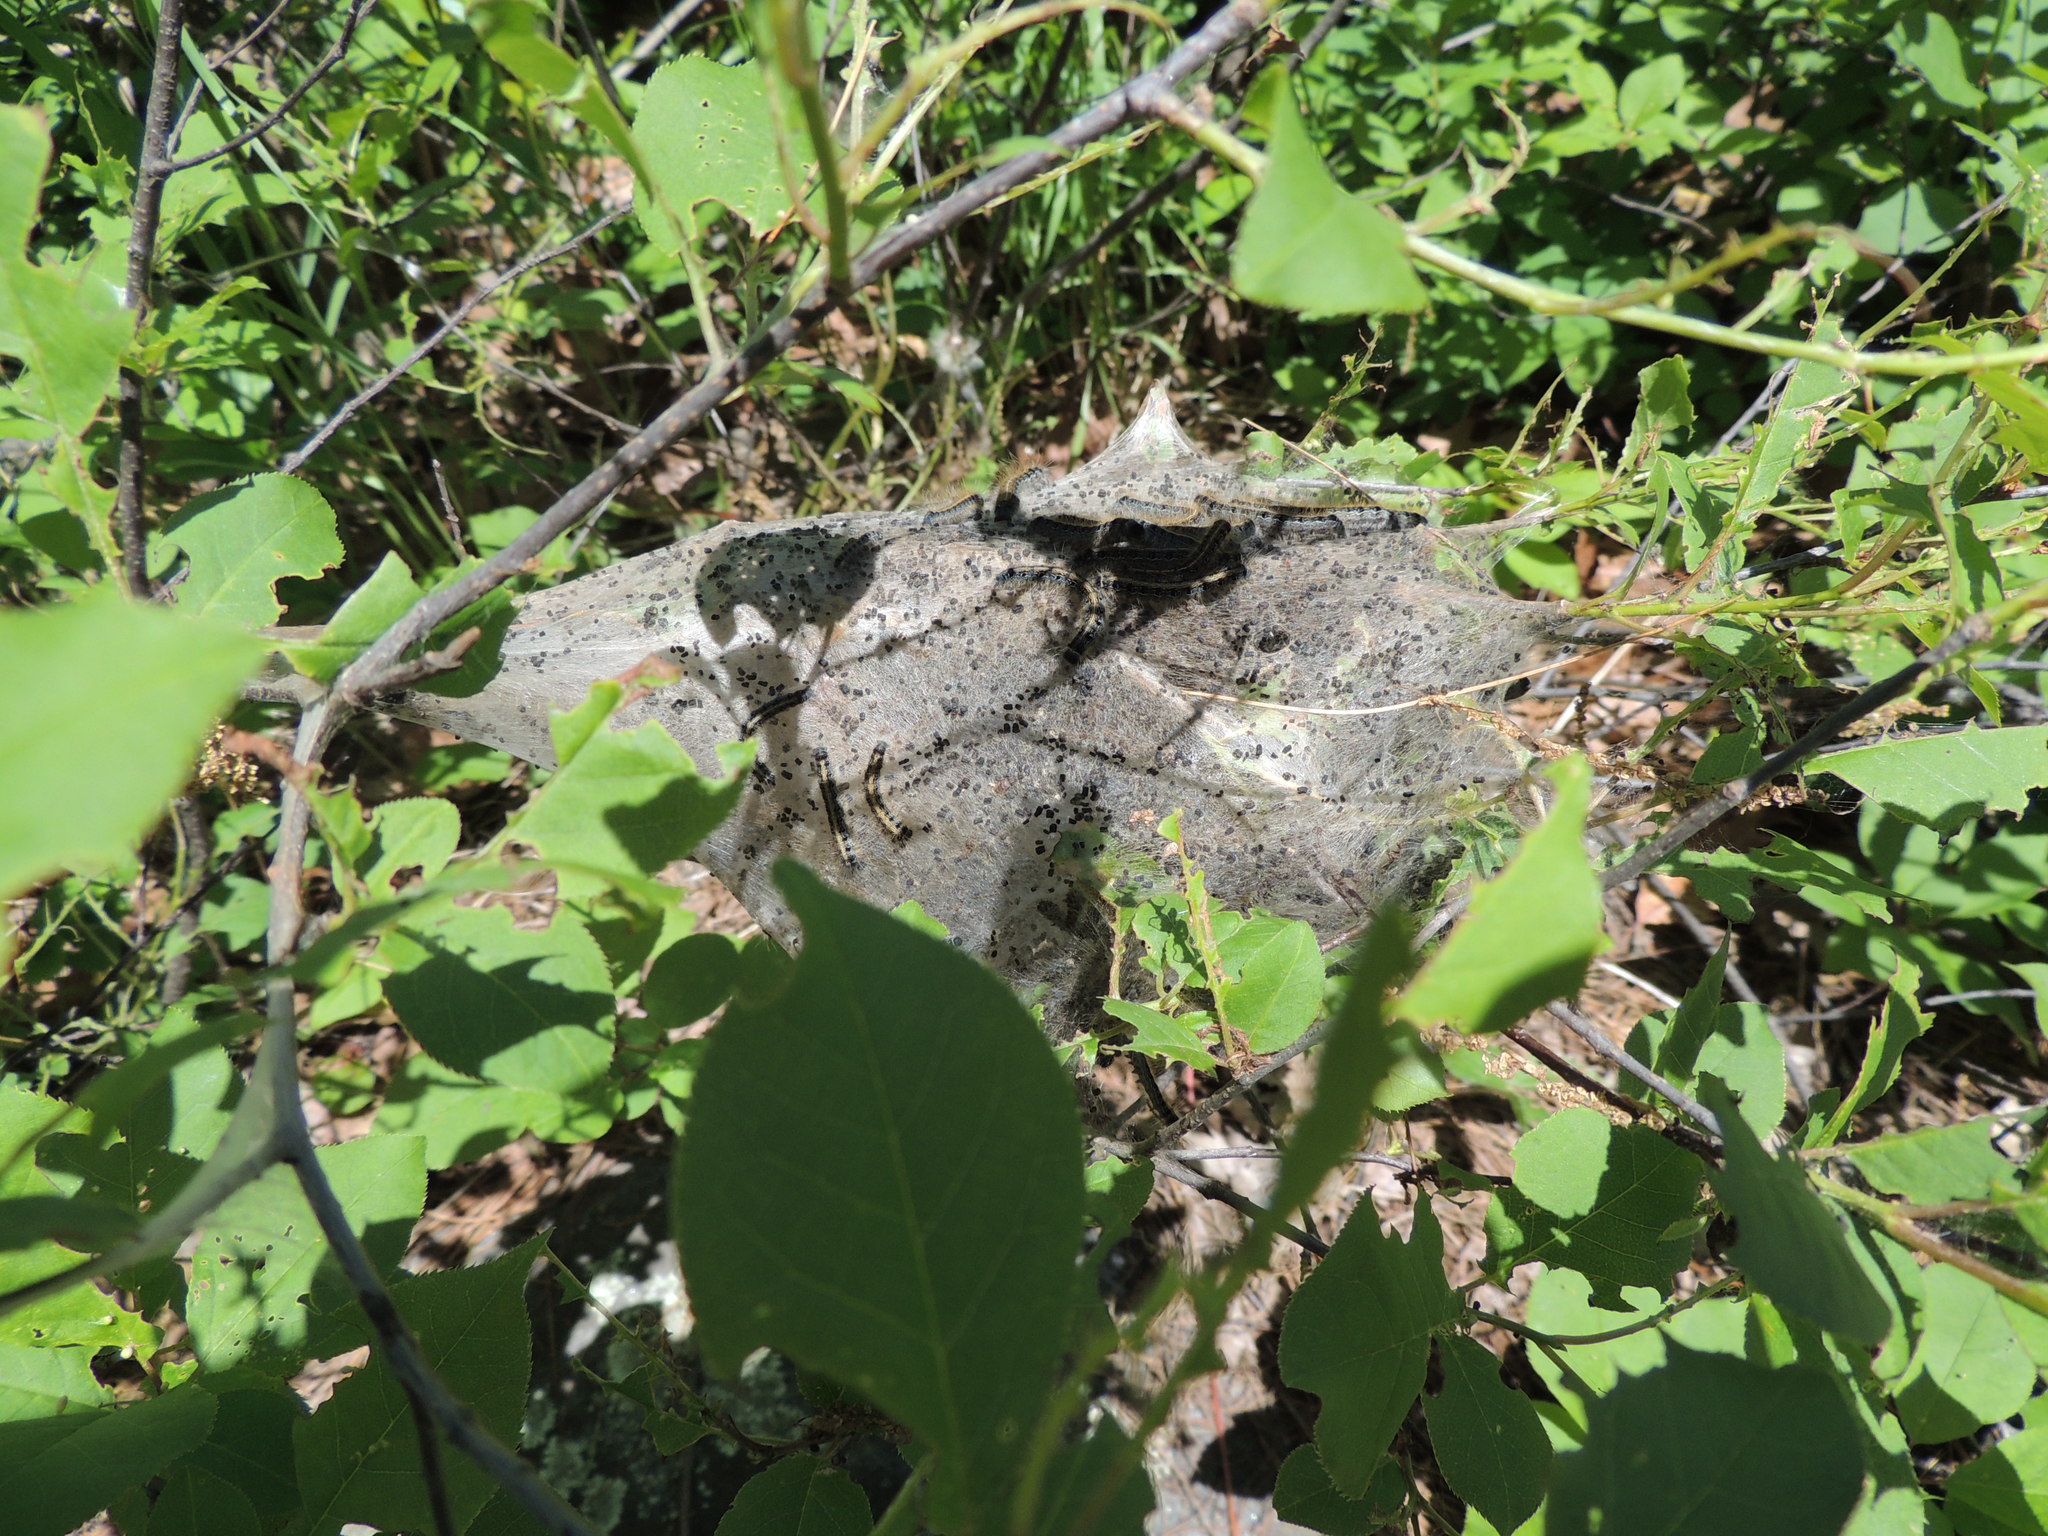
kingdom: Animalia
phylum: Arthropoda
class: Insecta
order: Lepidoptera
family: Lasiocampidae
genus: Malacosoma
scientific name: Malacosoma americana
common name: Eastern tent caterpillar moth
